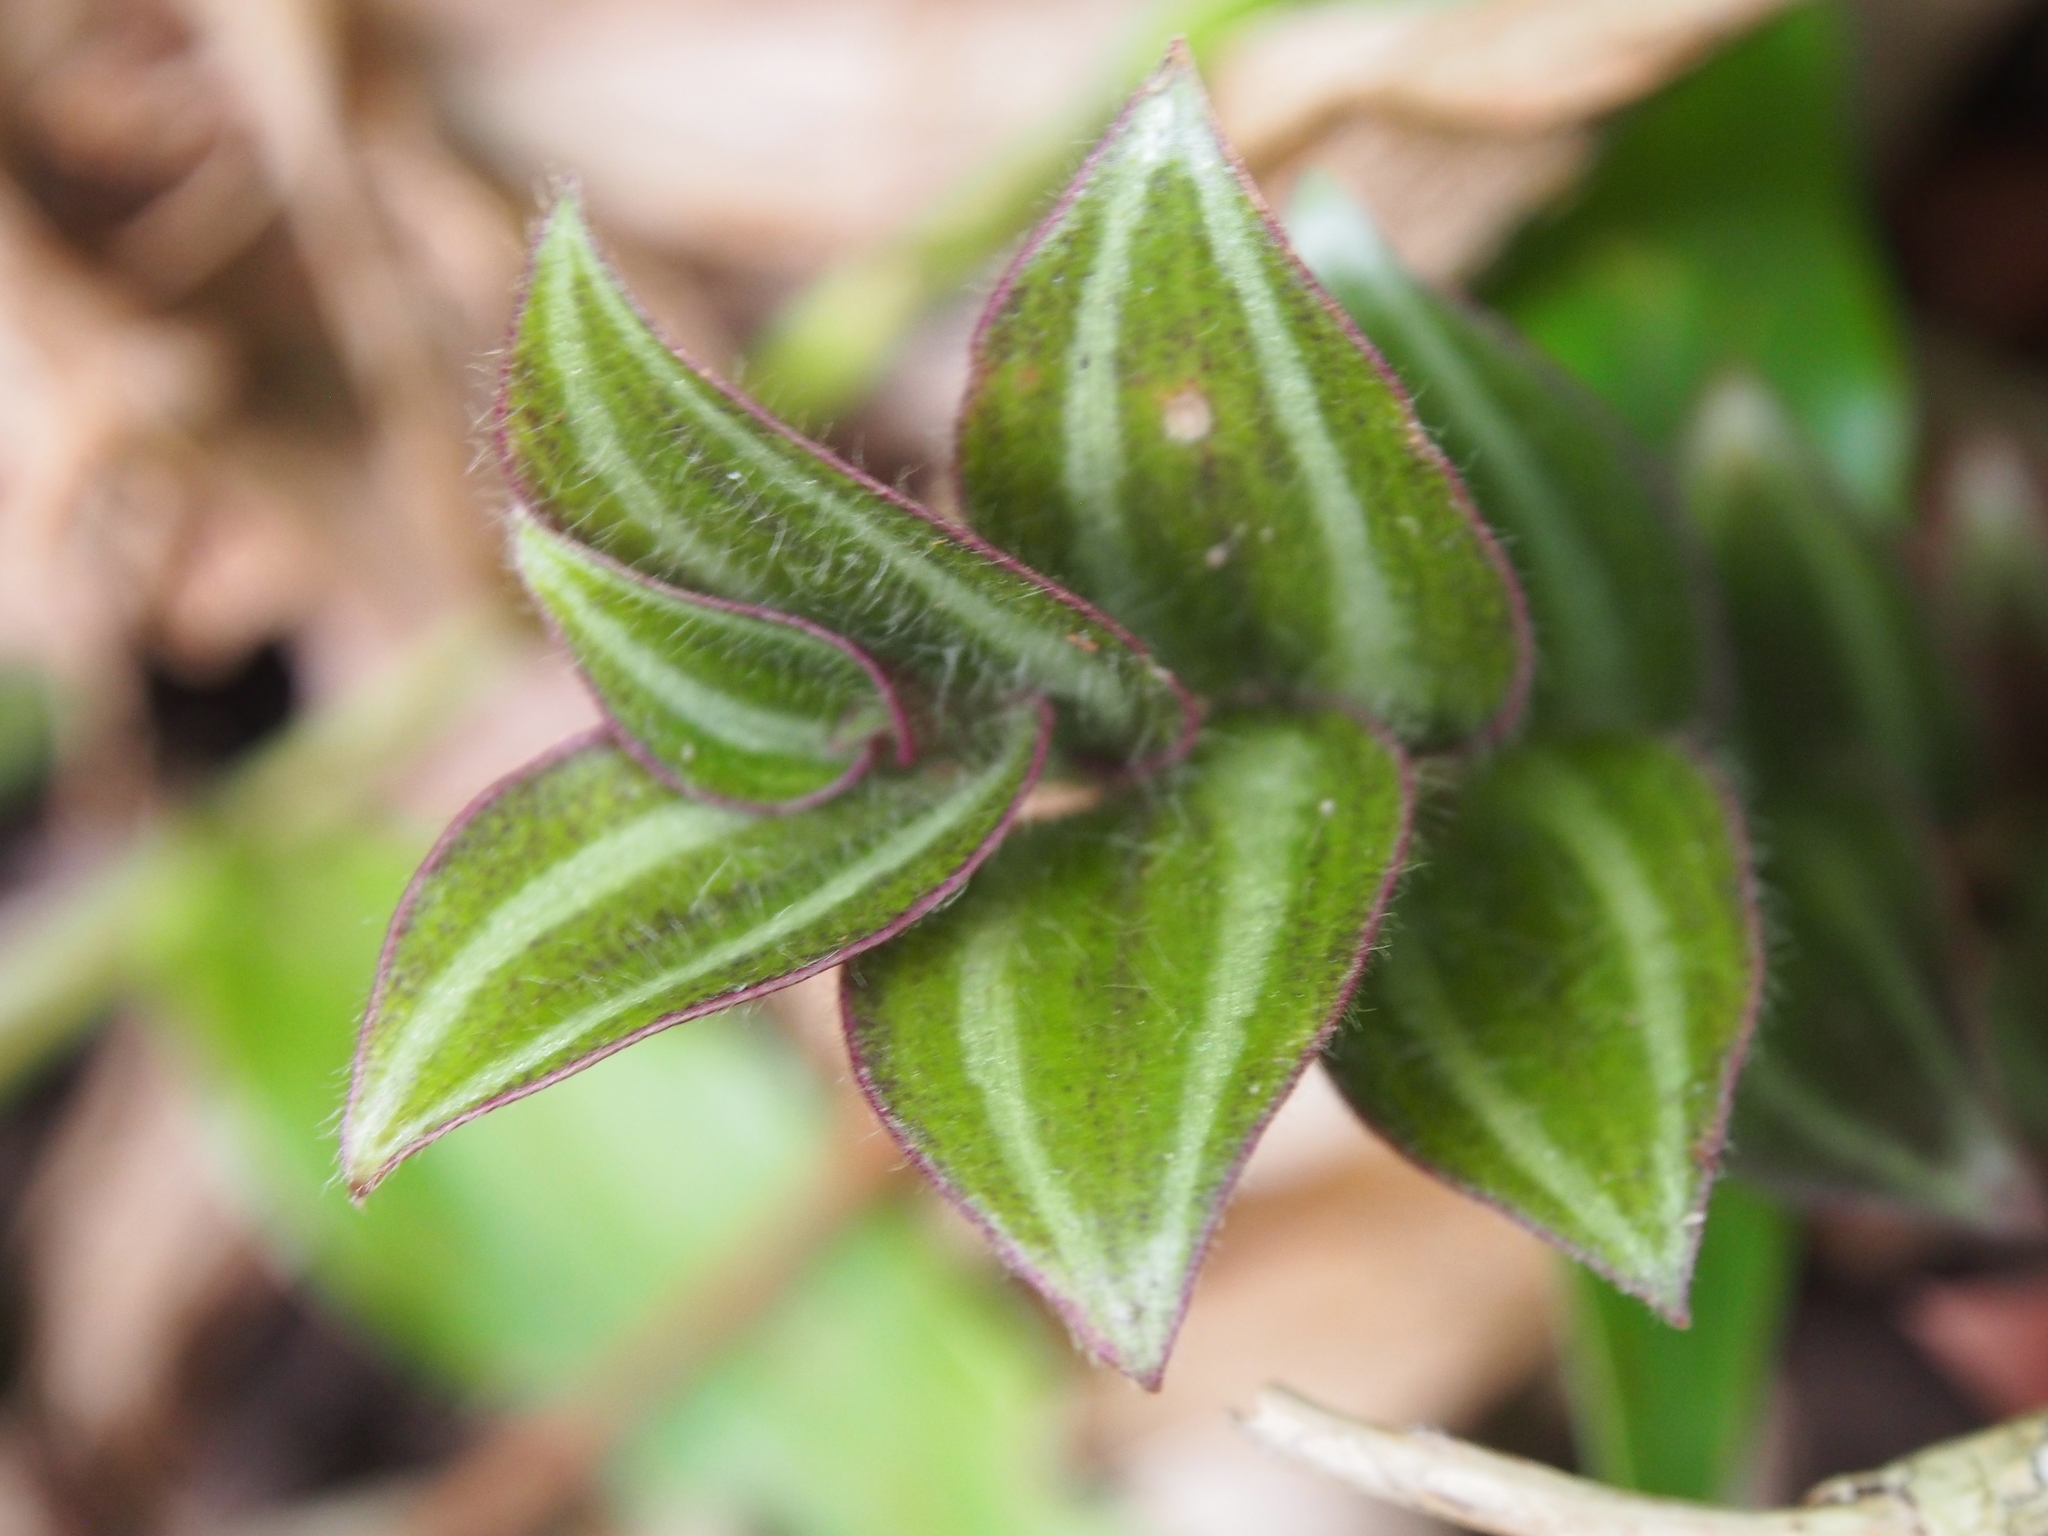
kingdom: Plantae
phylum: Tracheophyta
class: Liliopsida
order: Commelinales
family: Commelinaceae
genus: Tradescantia
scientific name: Tradescantia zebrina
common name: Inchplant
